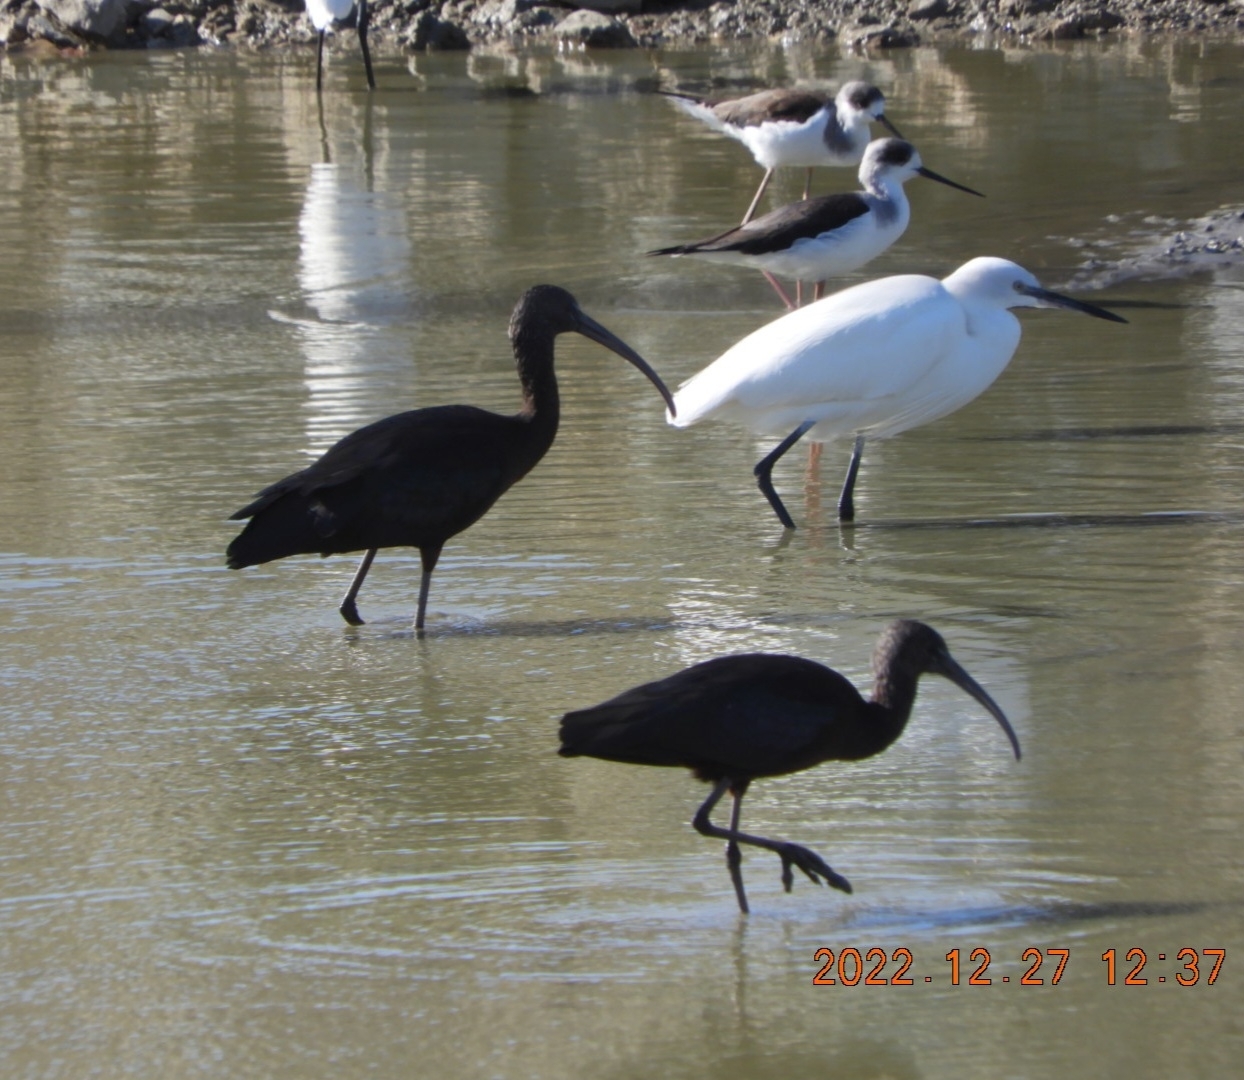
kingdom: Animalia
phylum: Chordata
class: Aves
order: Pelecaniformes
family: Threskiornithidae
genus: Plegadis
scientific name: Plegadis falcinellus
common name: Glossy ibis
